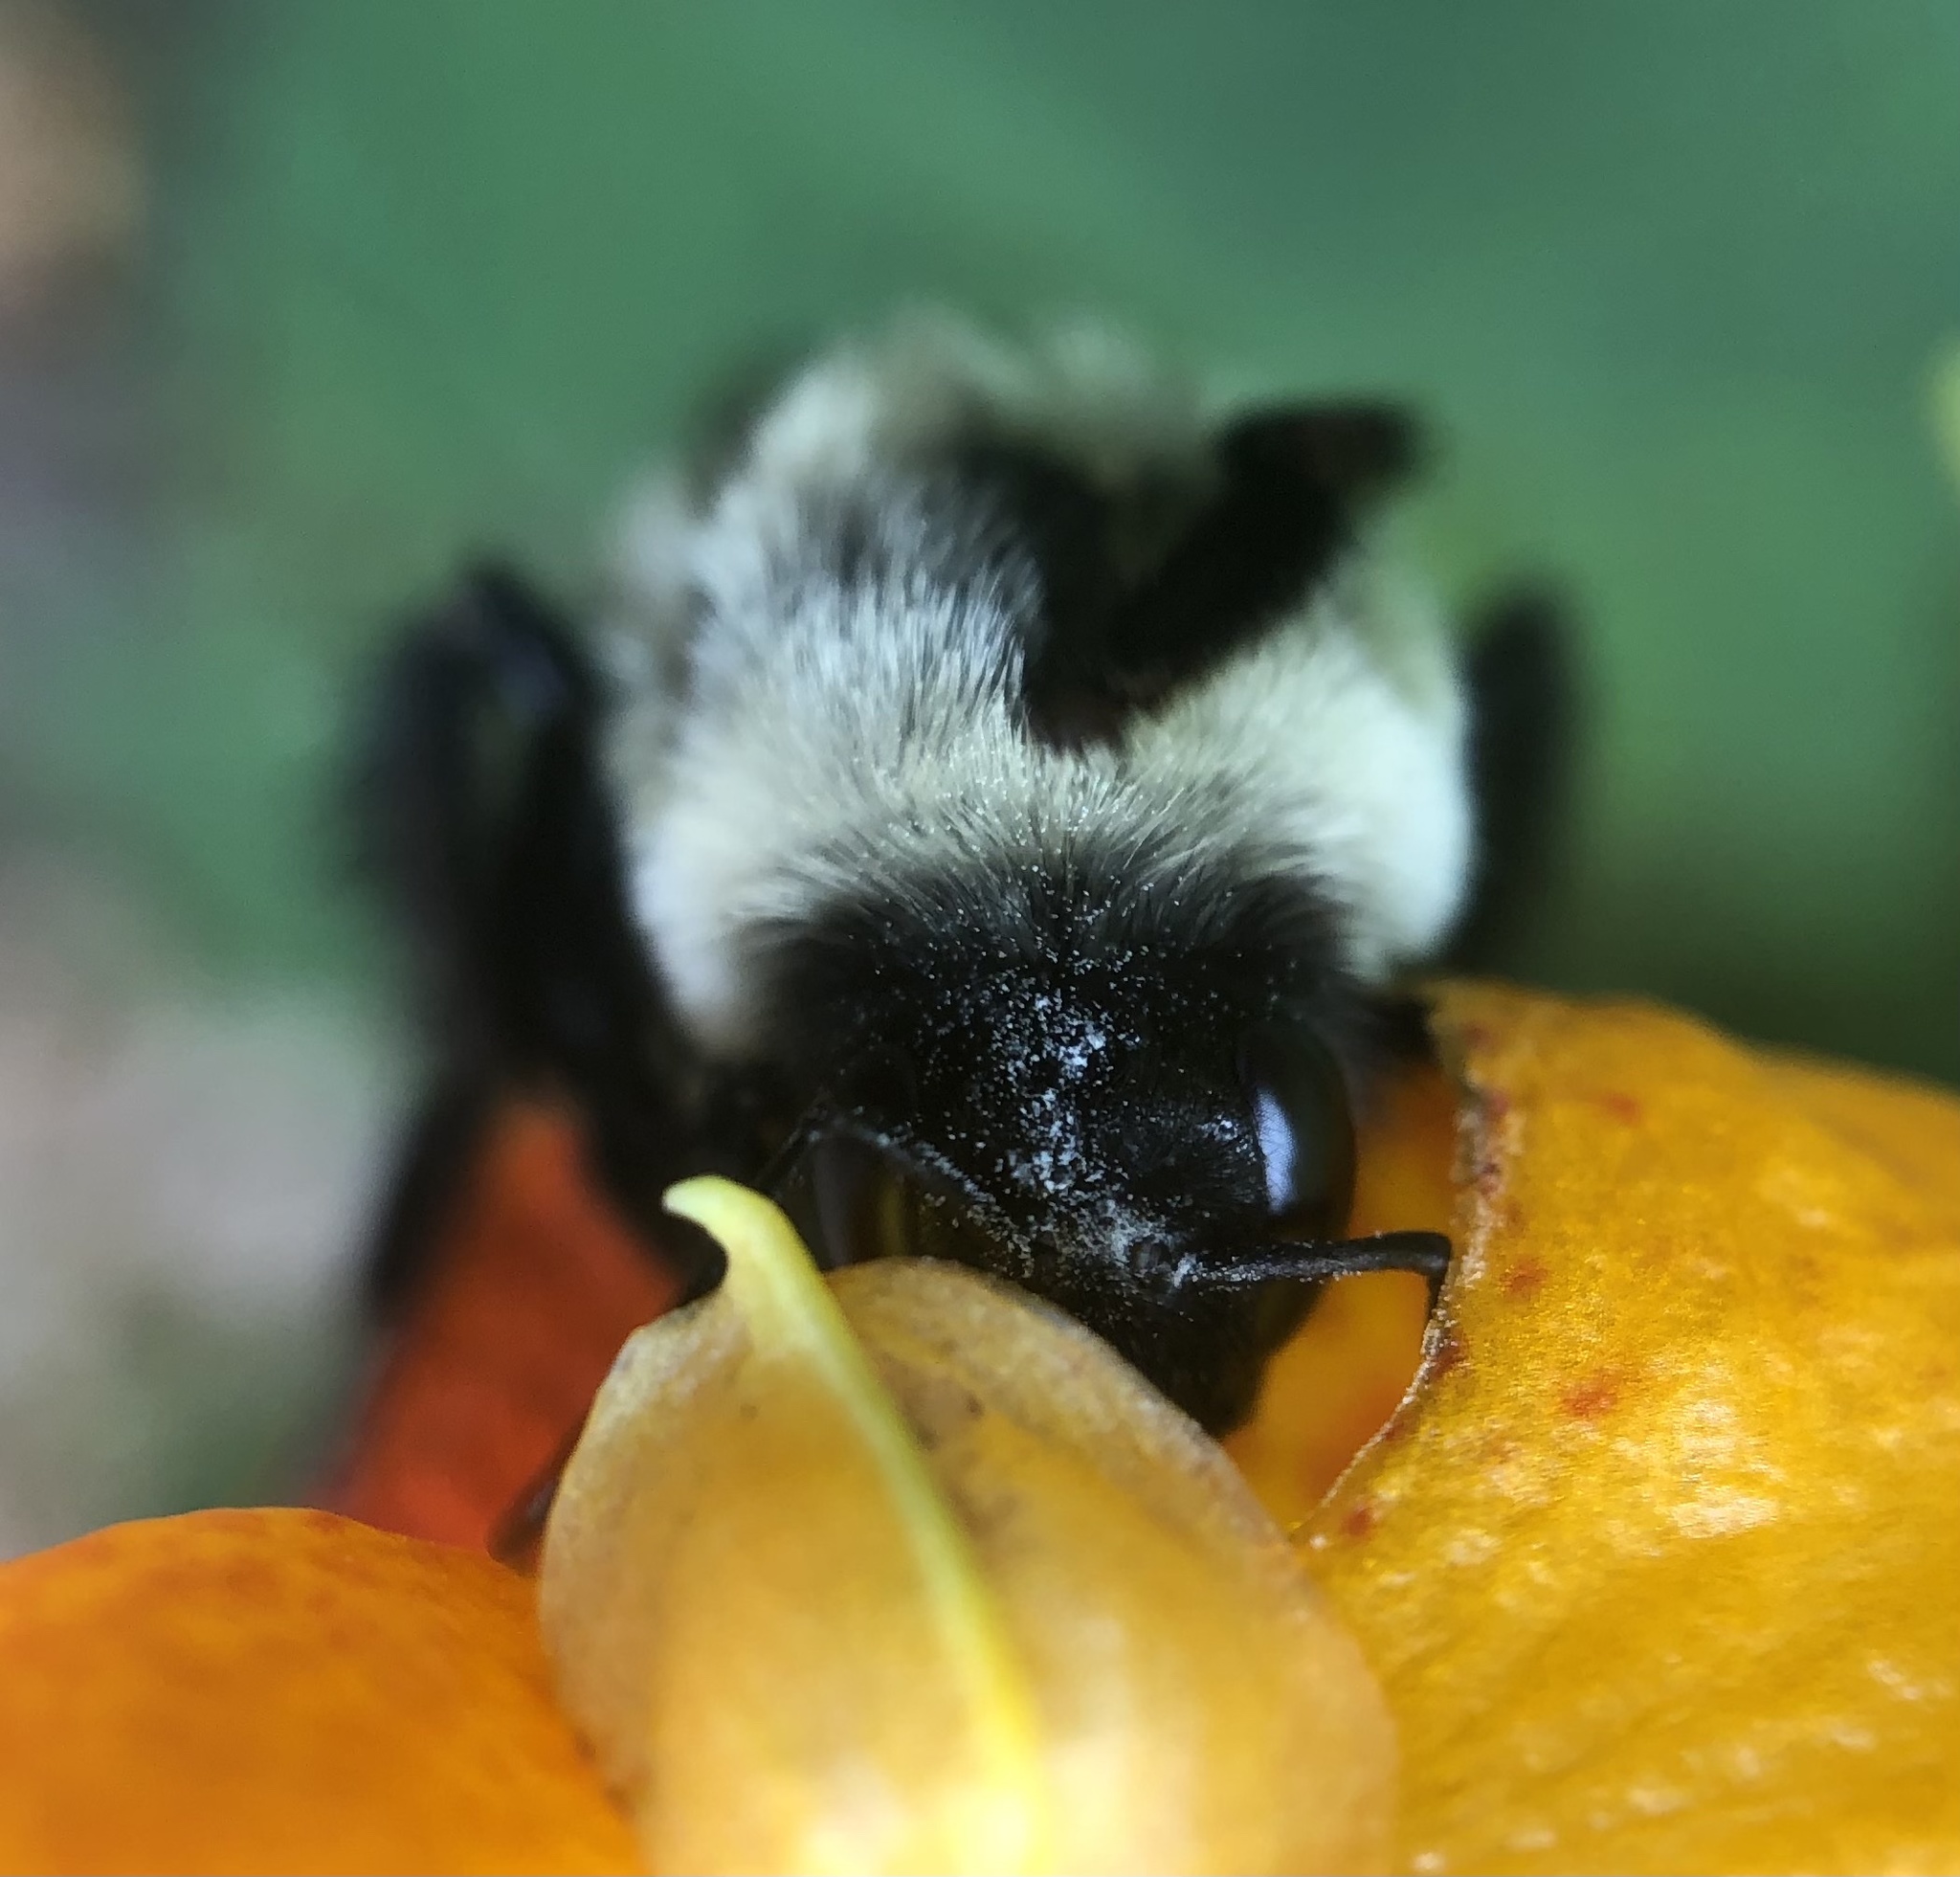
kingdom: Animalia
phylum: Arthropoda
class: Insecta
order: Hymenoptera
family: Apidae
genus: Bombus
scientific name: Bombus impatiens
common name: Common eastern bumble bee
